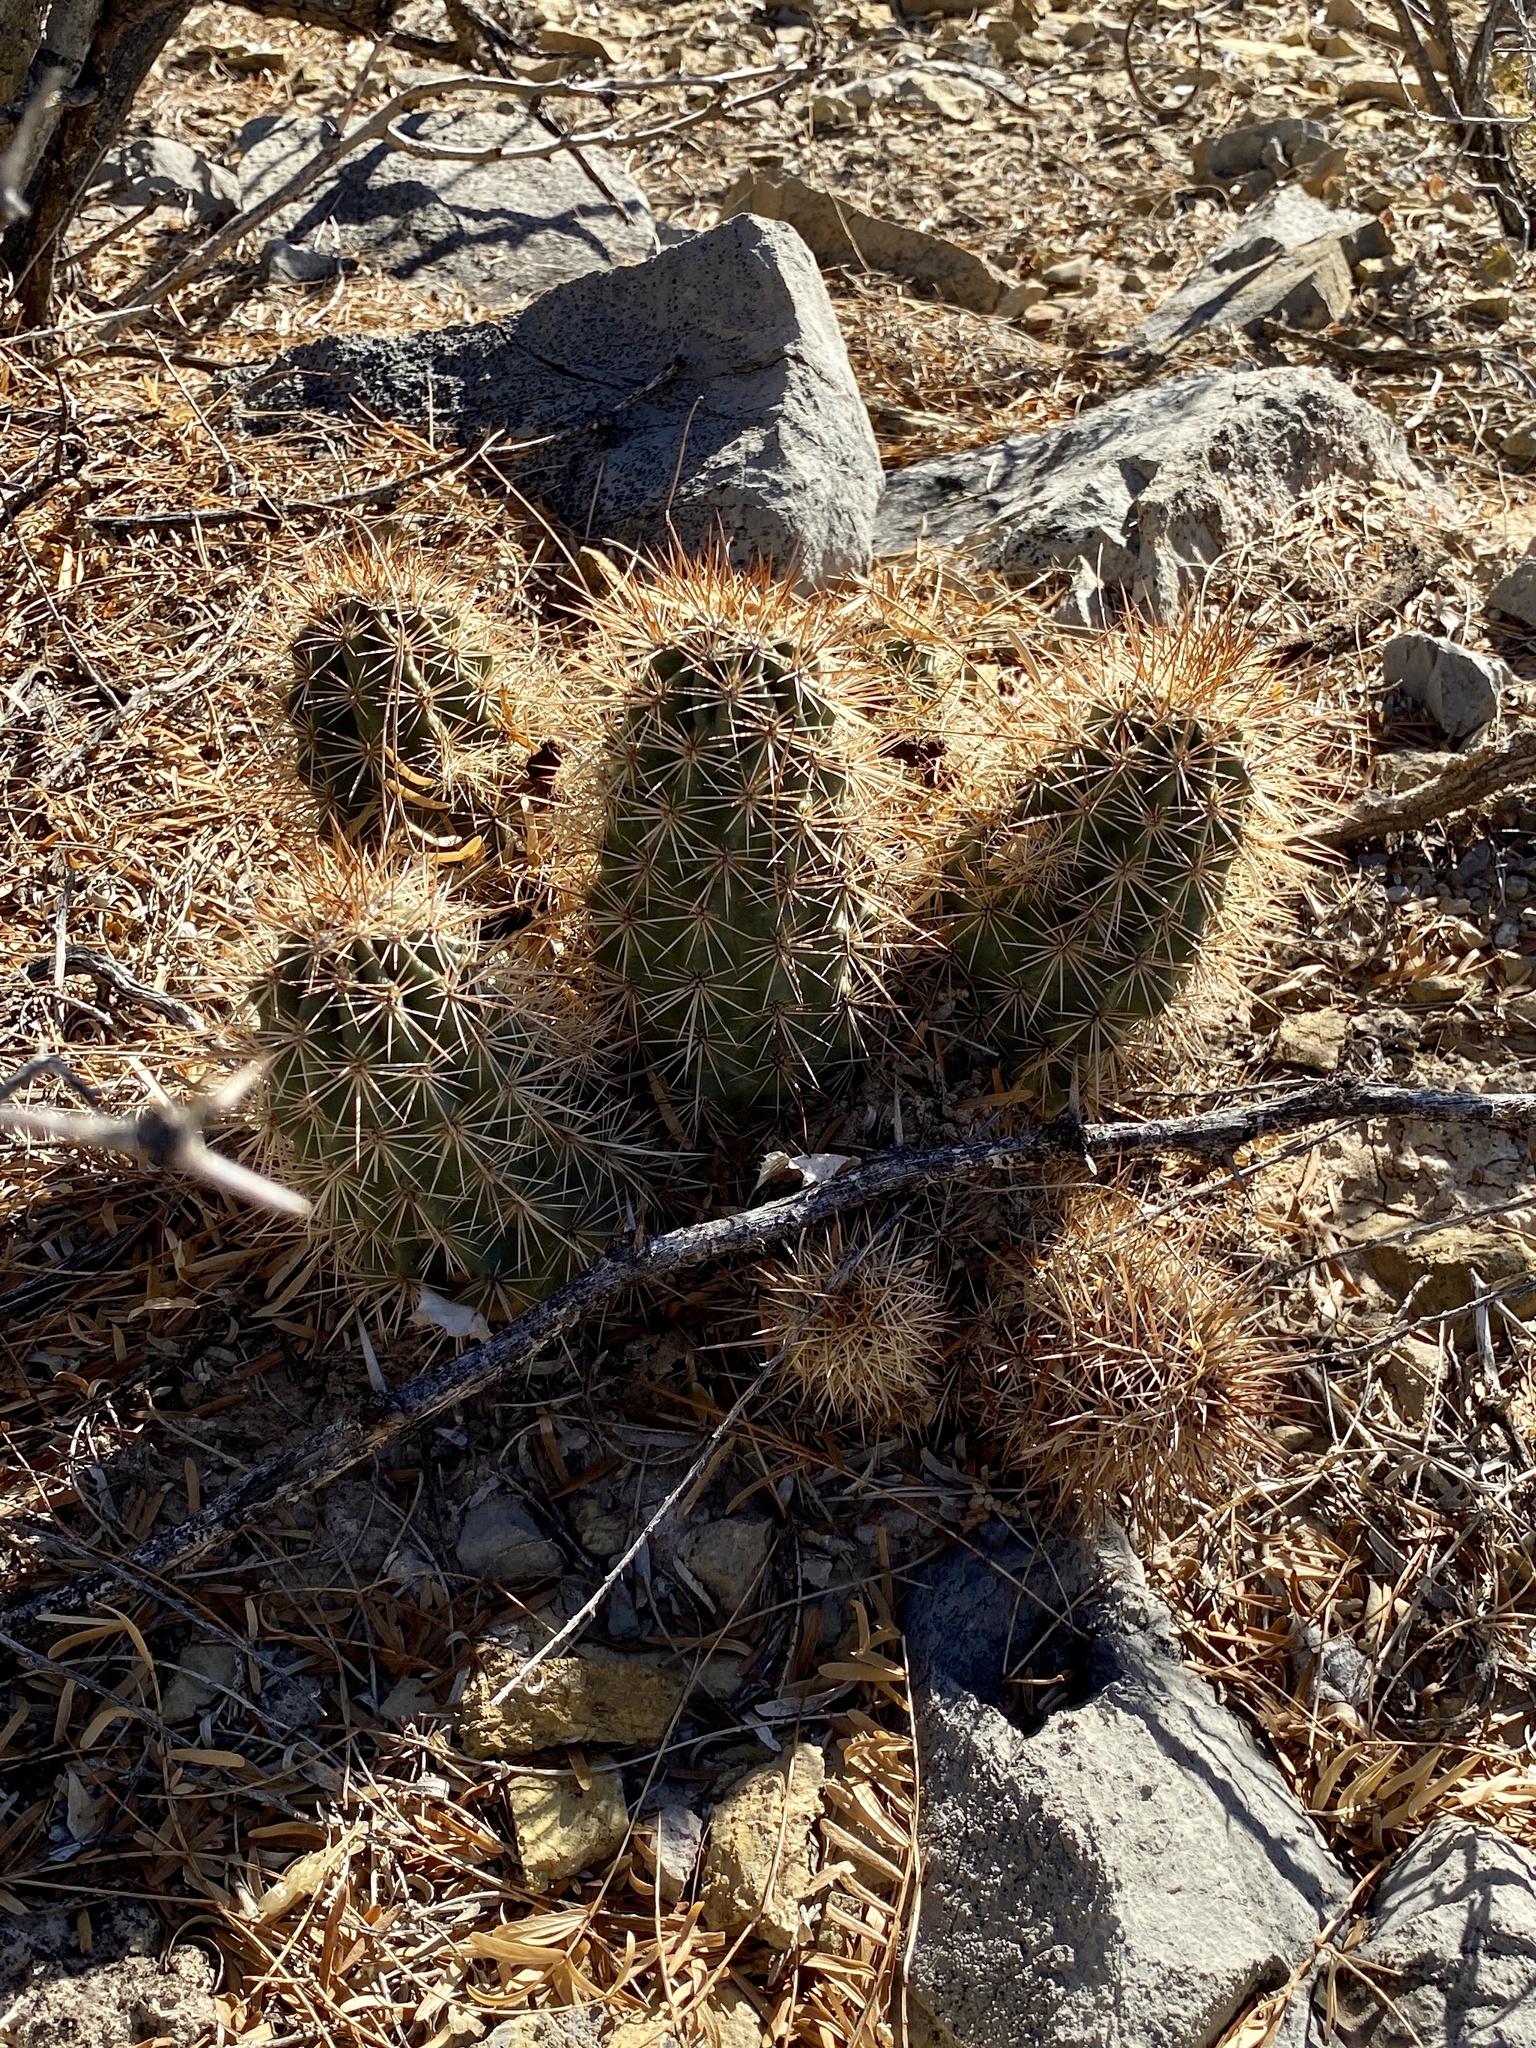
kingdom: Plantae
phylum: Tracheophyta
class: Magnoliopsida
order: Caryophyllales
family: Cactaceae
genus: Echinocereus
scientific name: Echinocereus coccineus
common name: Scarlet hedgehog cactus
